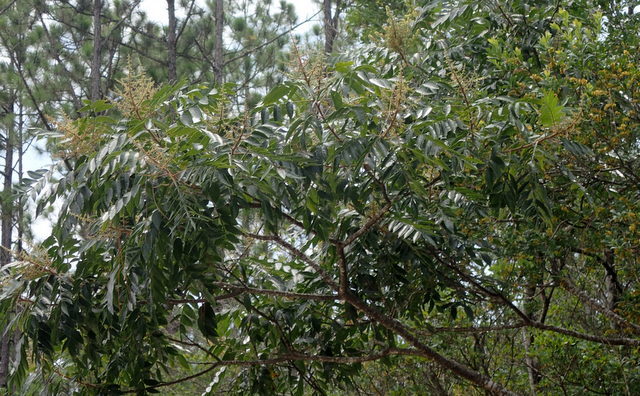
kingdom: Plantae
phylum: Tracheophyta
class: Magnoliopsida
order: Sapindales
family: Anacardiaceae
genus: Rhus
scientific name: Rhus copallina
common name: Shining sumac
